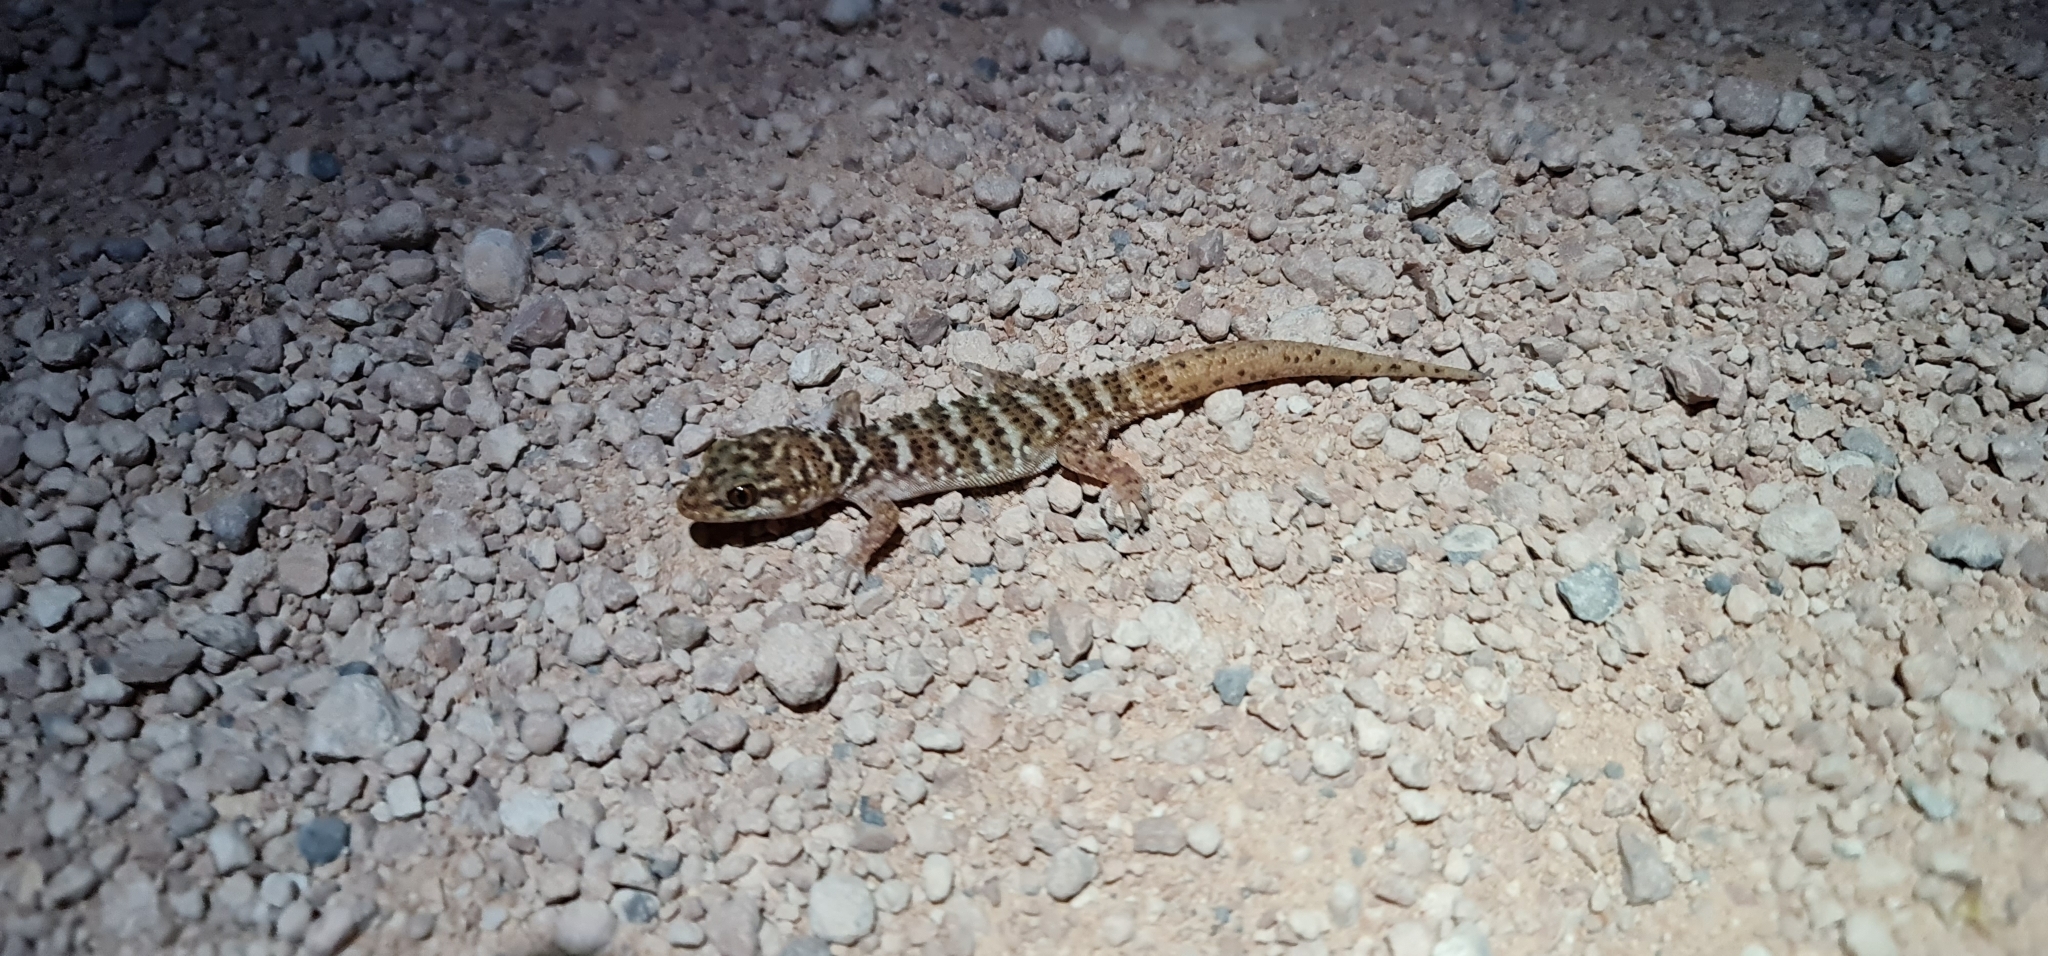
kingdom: Animalia
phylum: Chordata
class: Squamata
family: Gekkonidae
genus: Heteronotia
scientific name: Heteronotia binoei
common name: Bynoe's gecko
